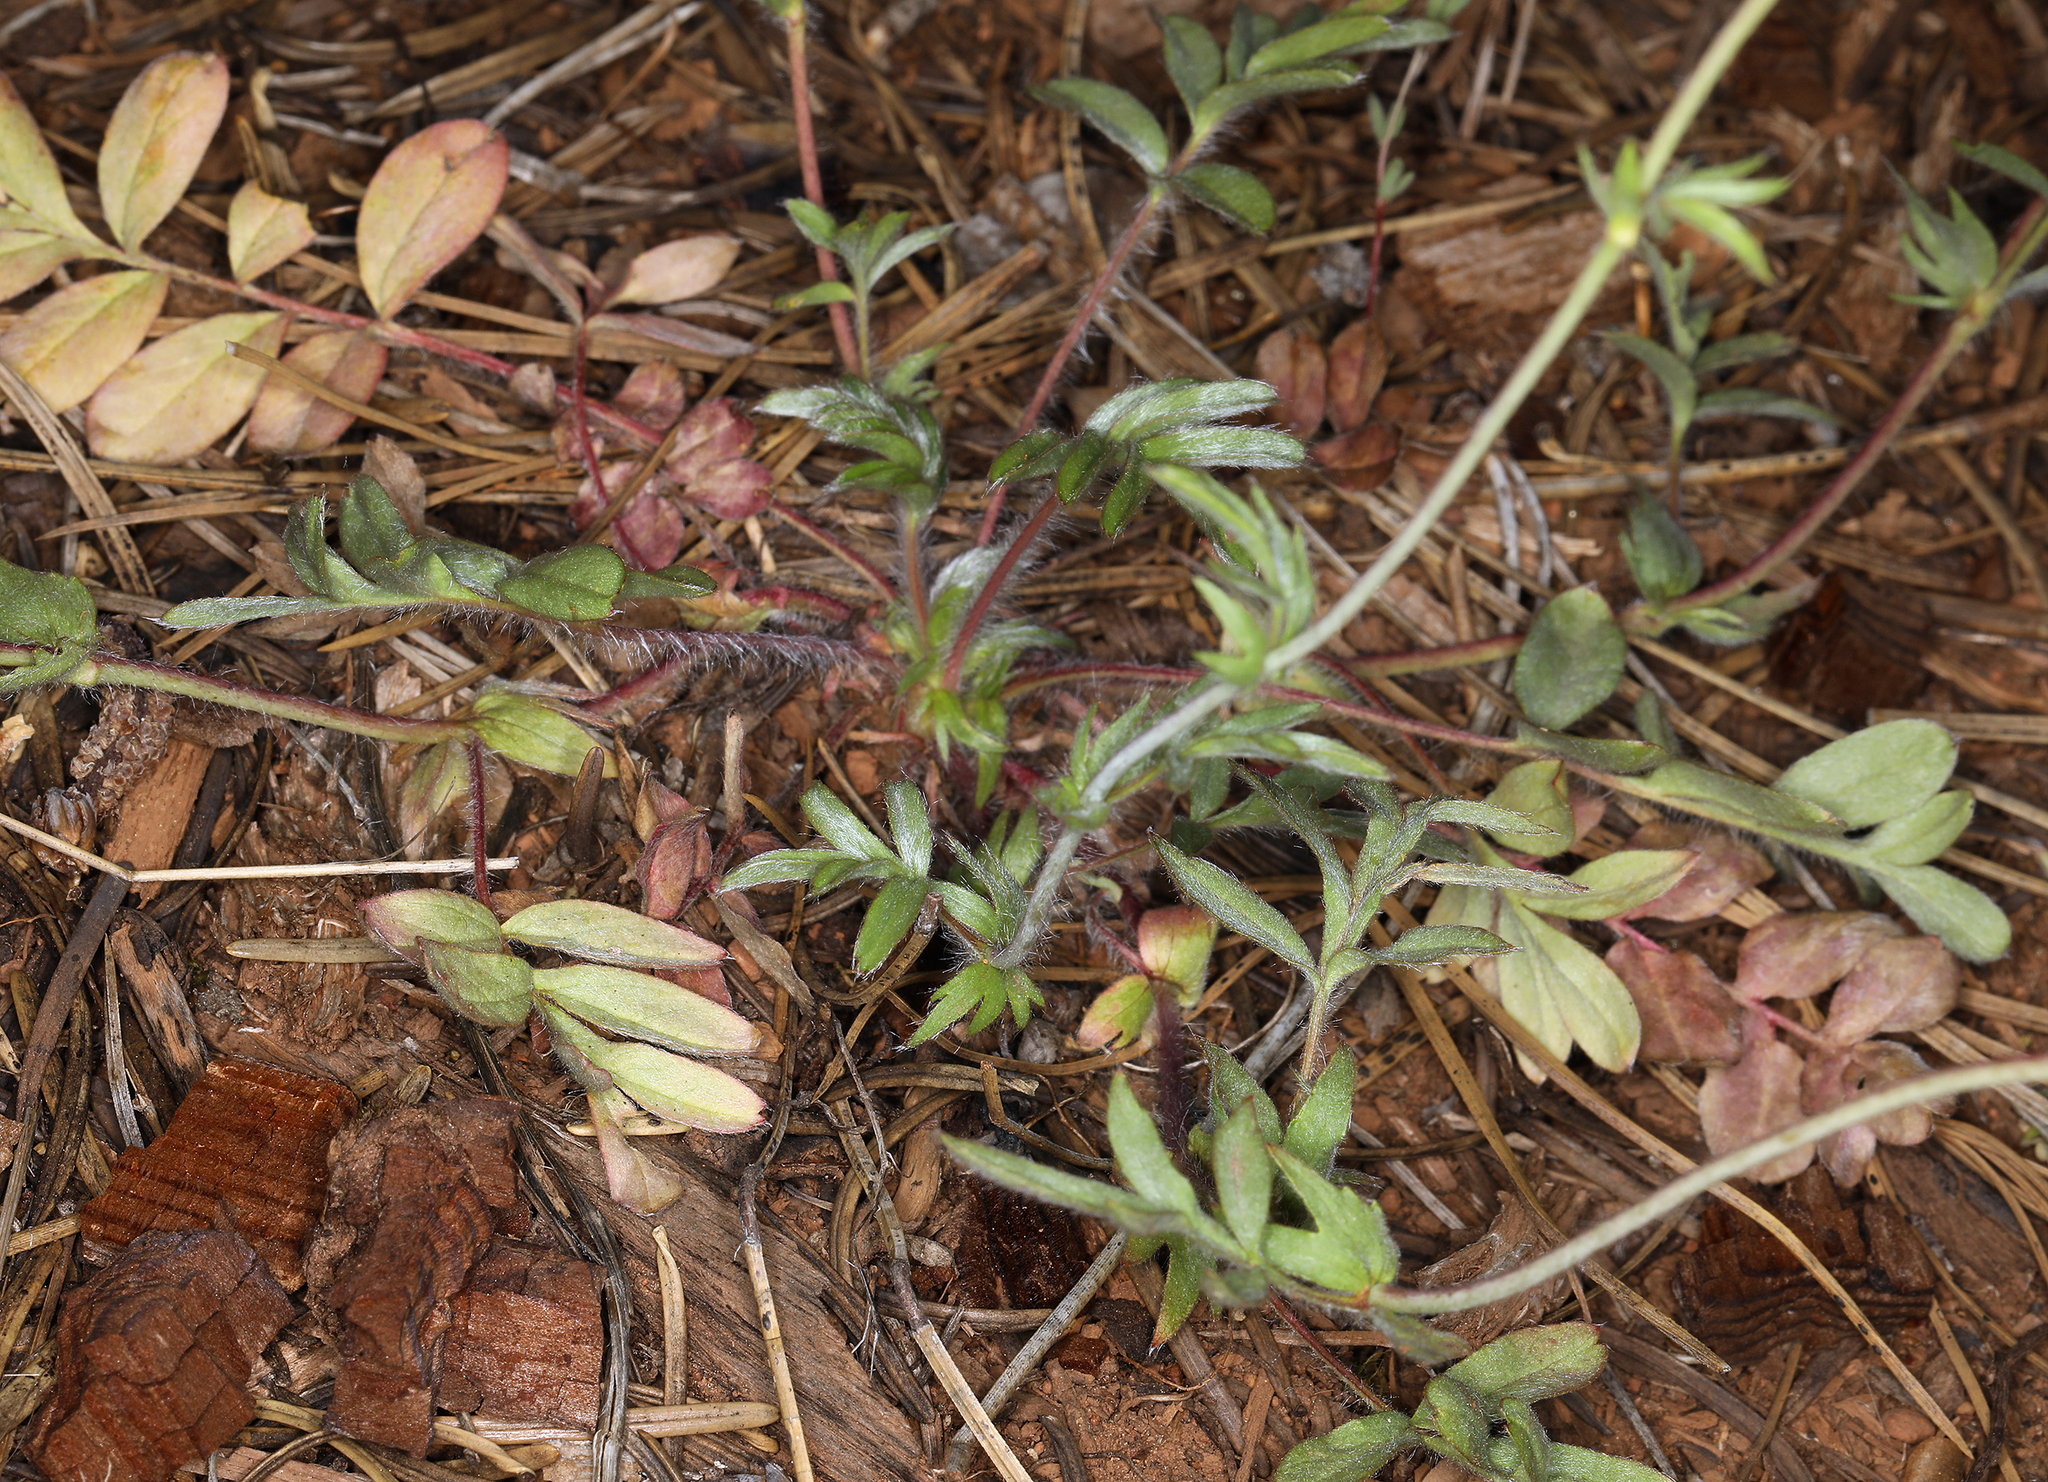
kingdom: Plantae
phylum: Tracheophyta
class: Magnoliopsida
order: Rosales
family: Rosaceae
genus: Potentilla
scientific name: Potentilla tilingii
